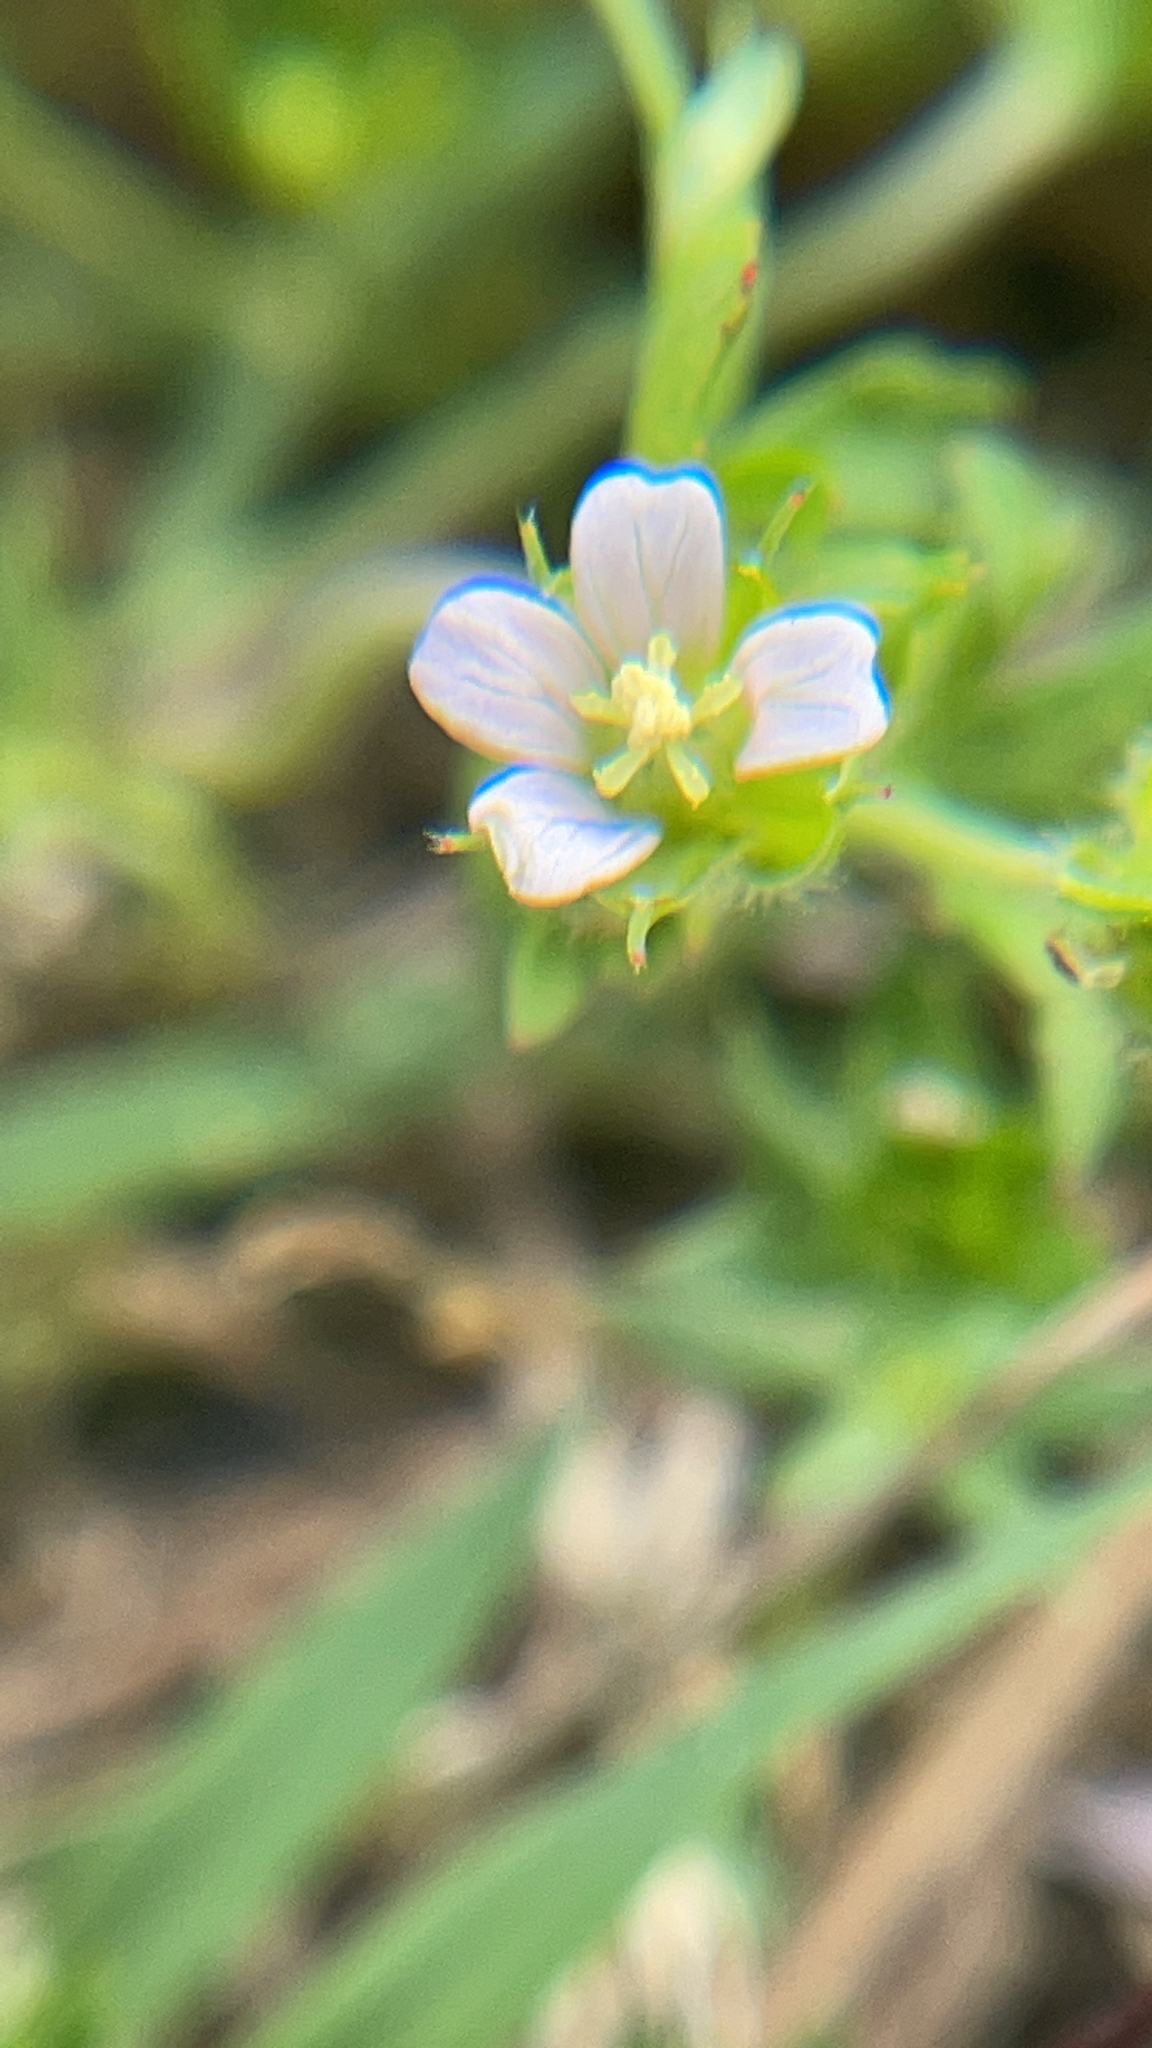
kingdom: Plantae
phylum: Tracheophyta
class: Magnoliopsida
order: Geraniales
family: Geraniaceae
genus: Geranium
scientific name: Geranium carolinianum
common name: Carolina crane's-bill
